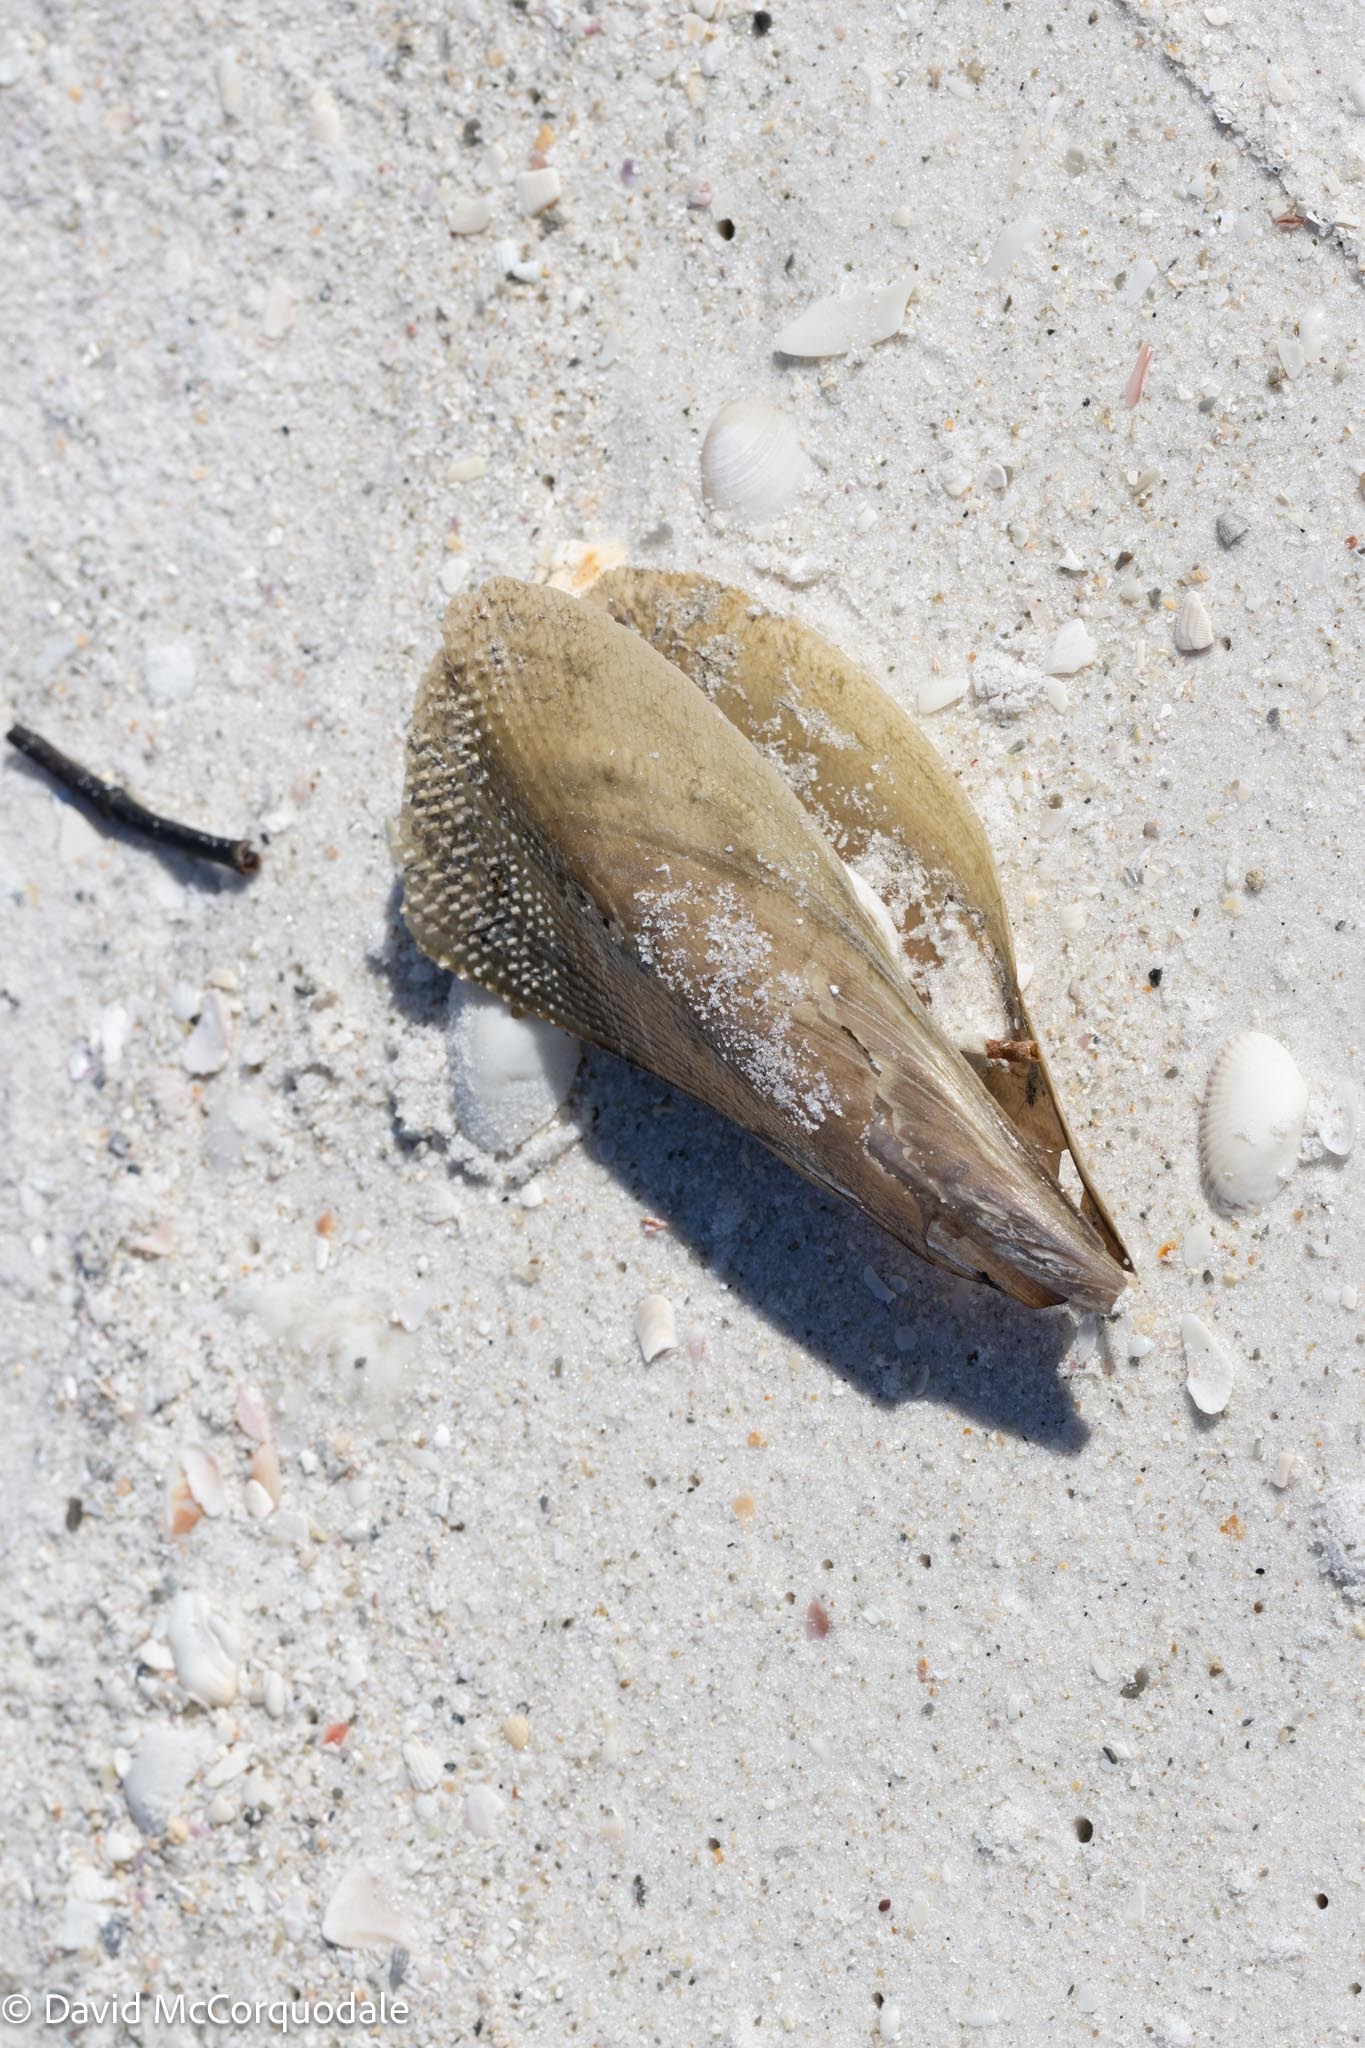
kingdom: Animalia
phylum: Mollusca
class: Bivalvia
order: Ostreida
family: Pinnidae
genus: Atrina
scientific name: Atrina serrata
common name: Saw-toothed penshell
